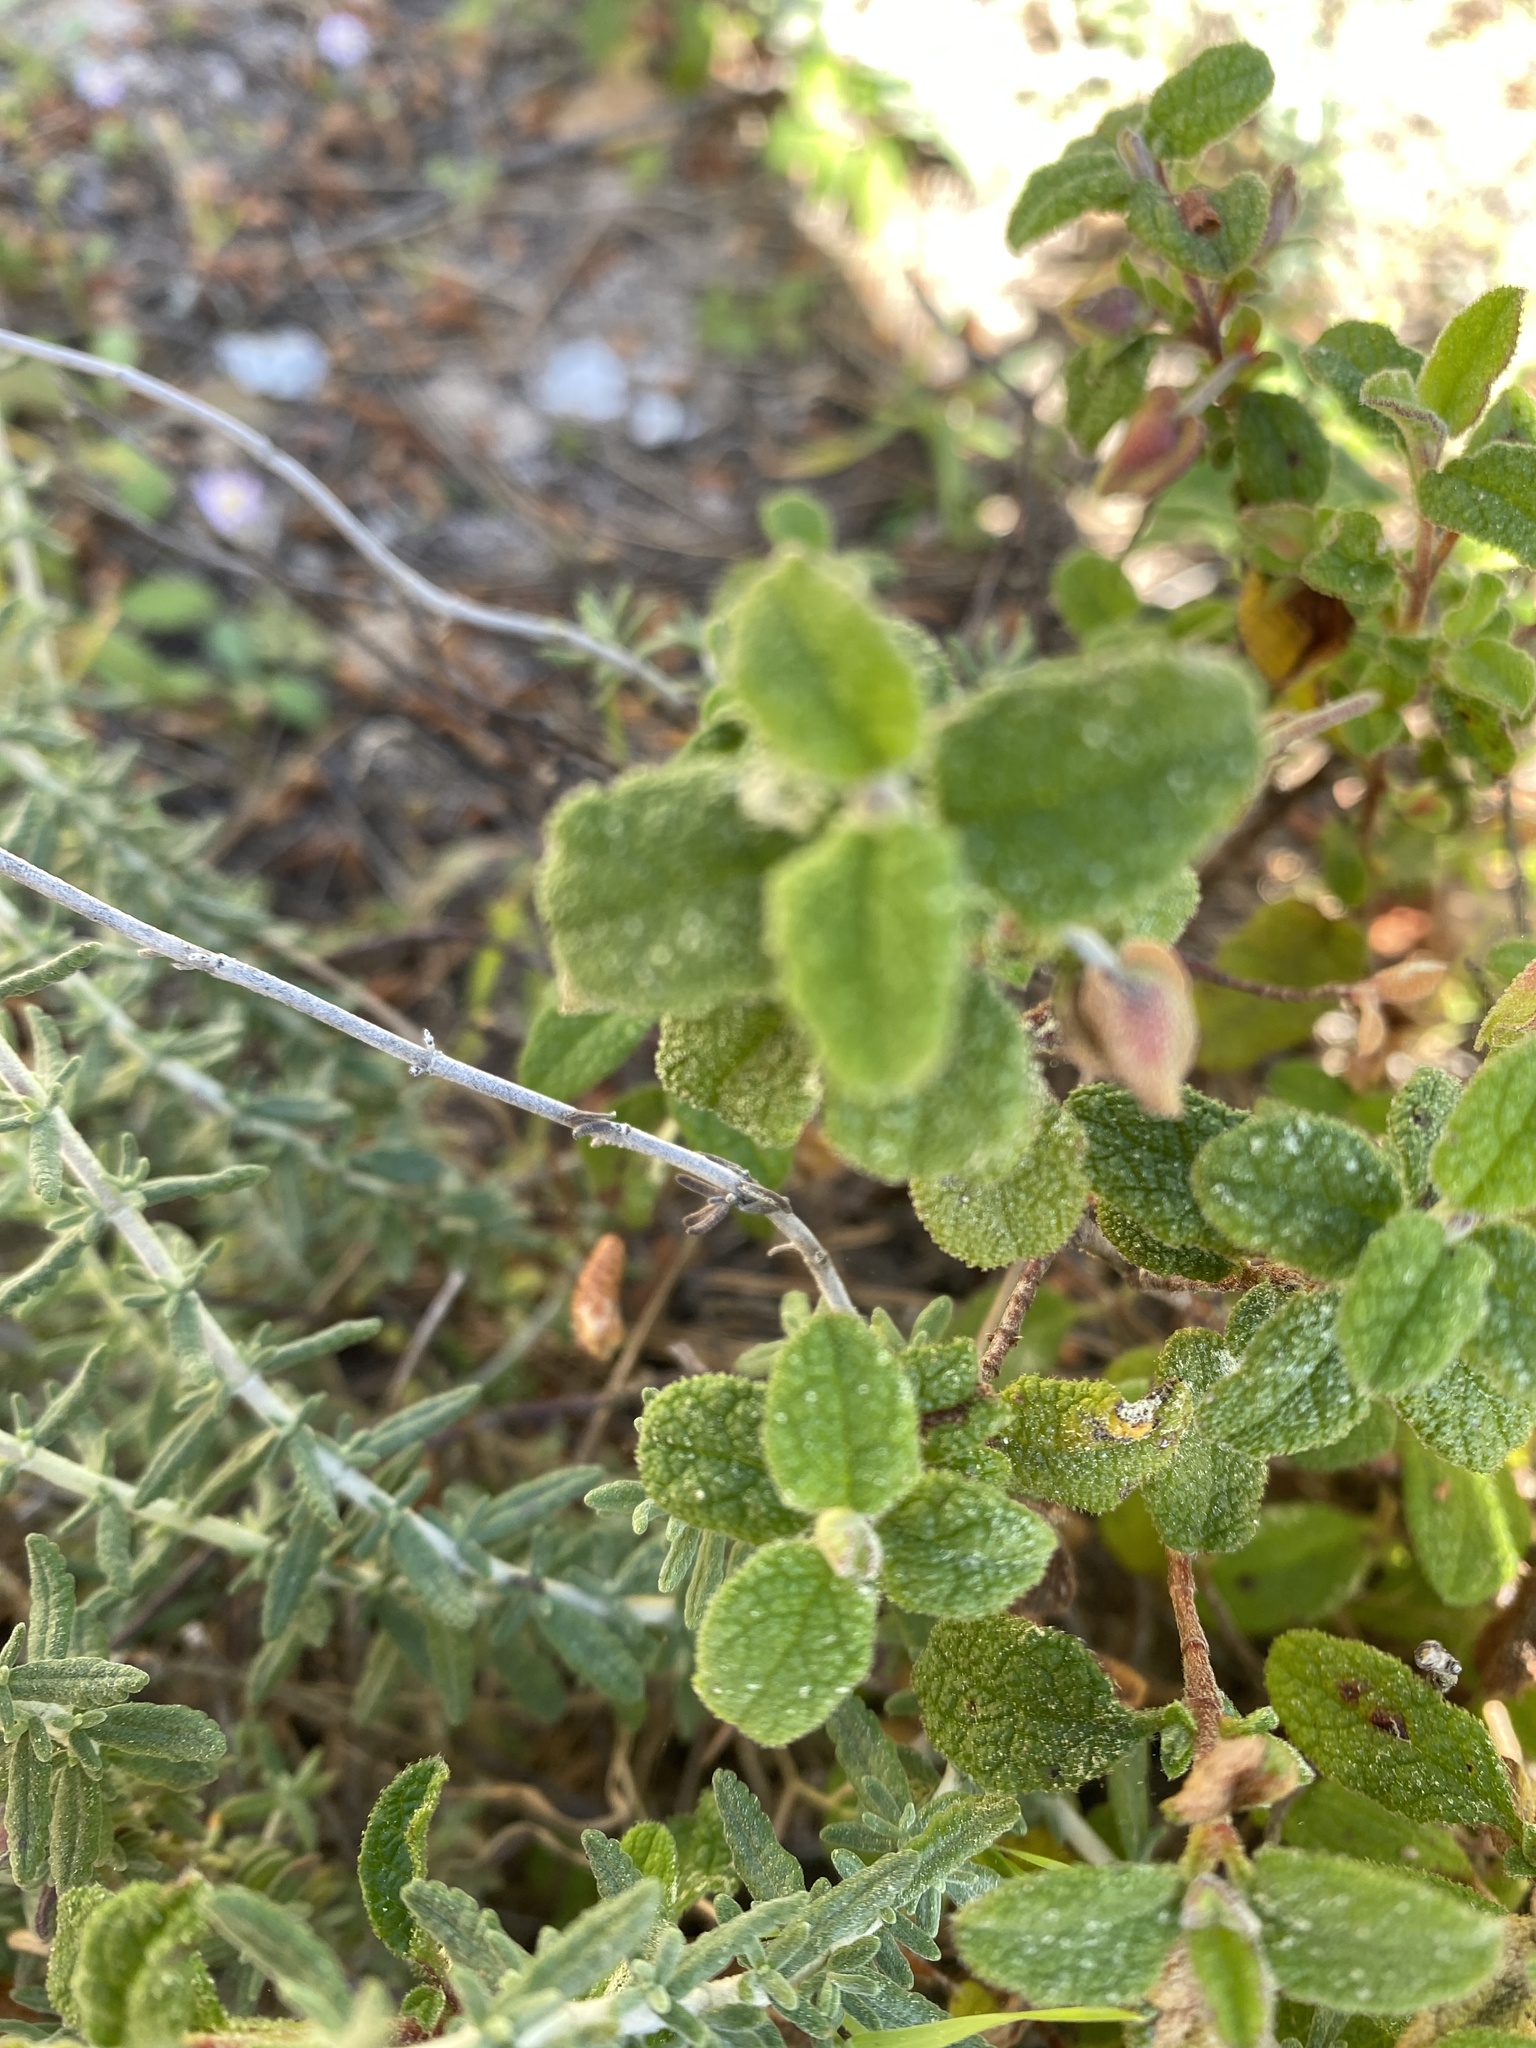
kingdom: Plantae
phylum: Tracheophyta
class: Magnoliopsida
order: Malvales
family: Cistaceae
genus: Cistus
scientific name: Cistus salviifolius
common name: Salvia cistus
